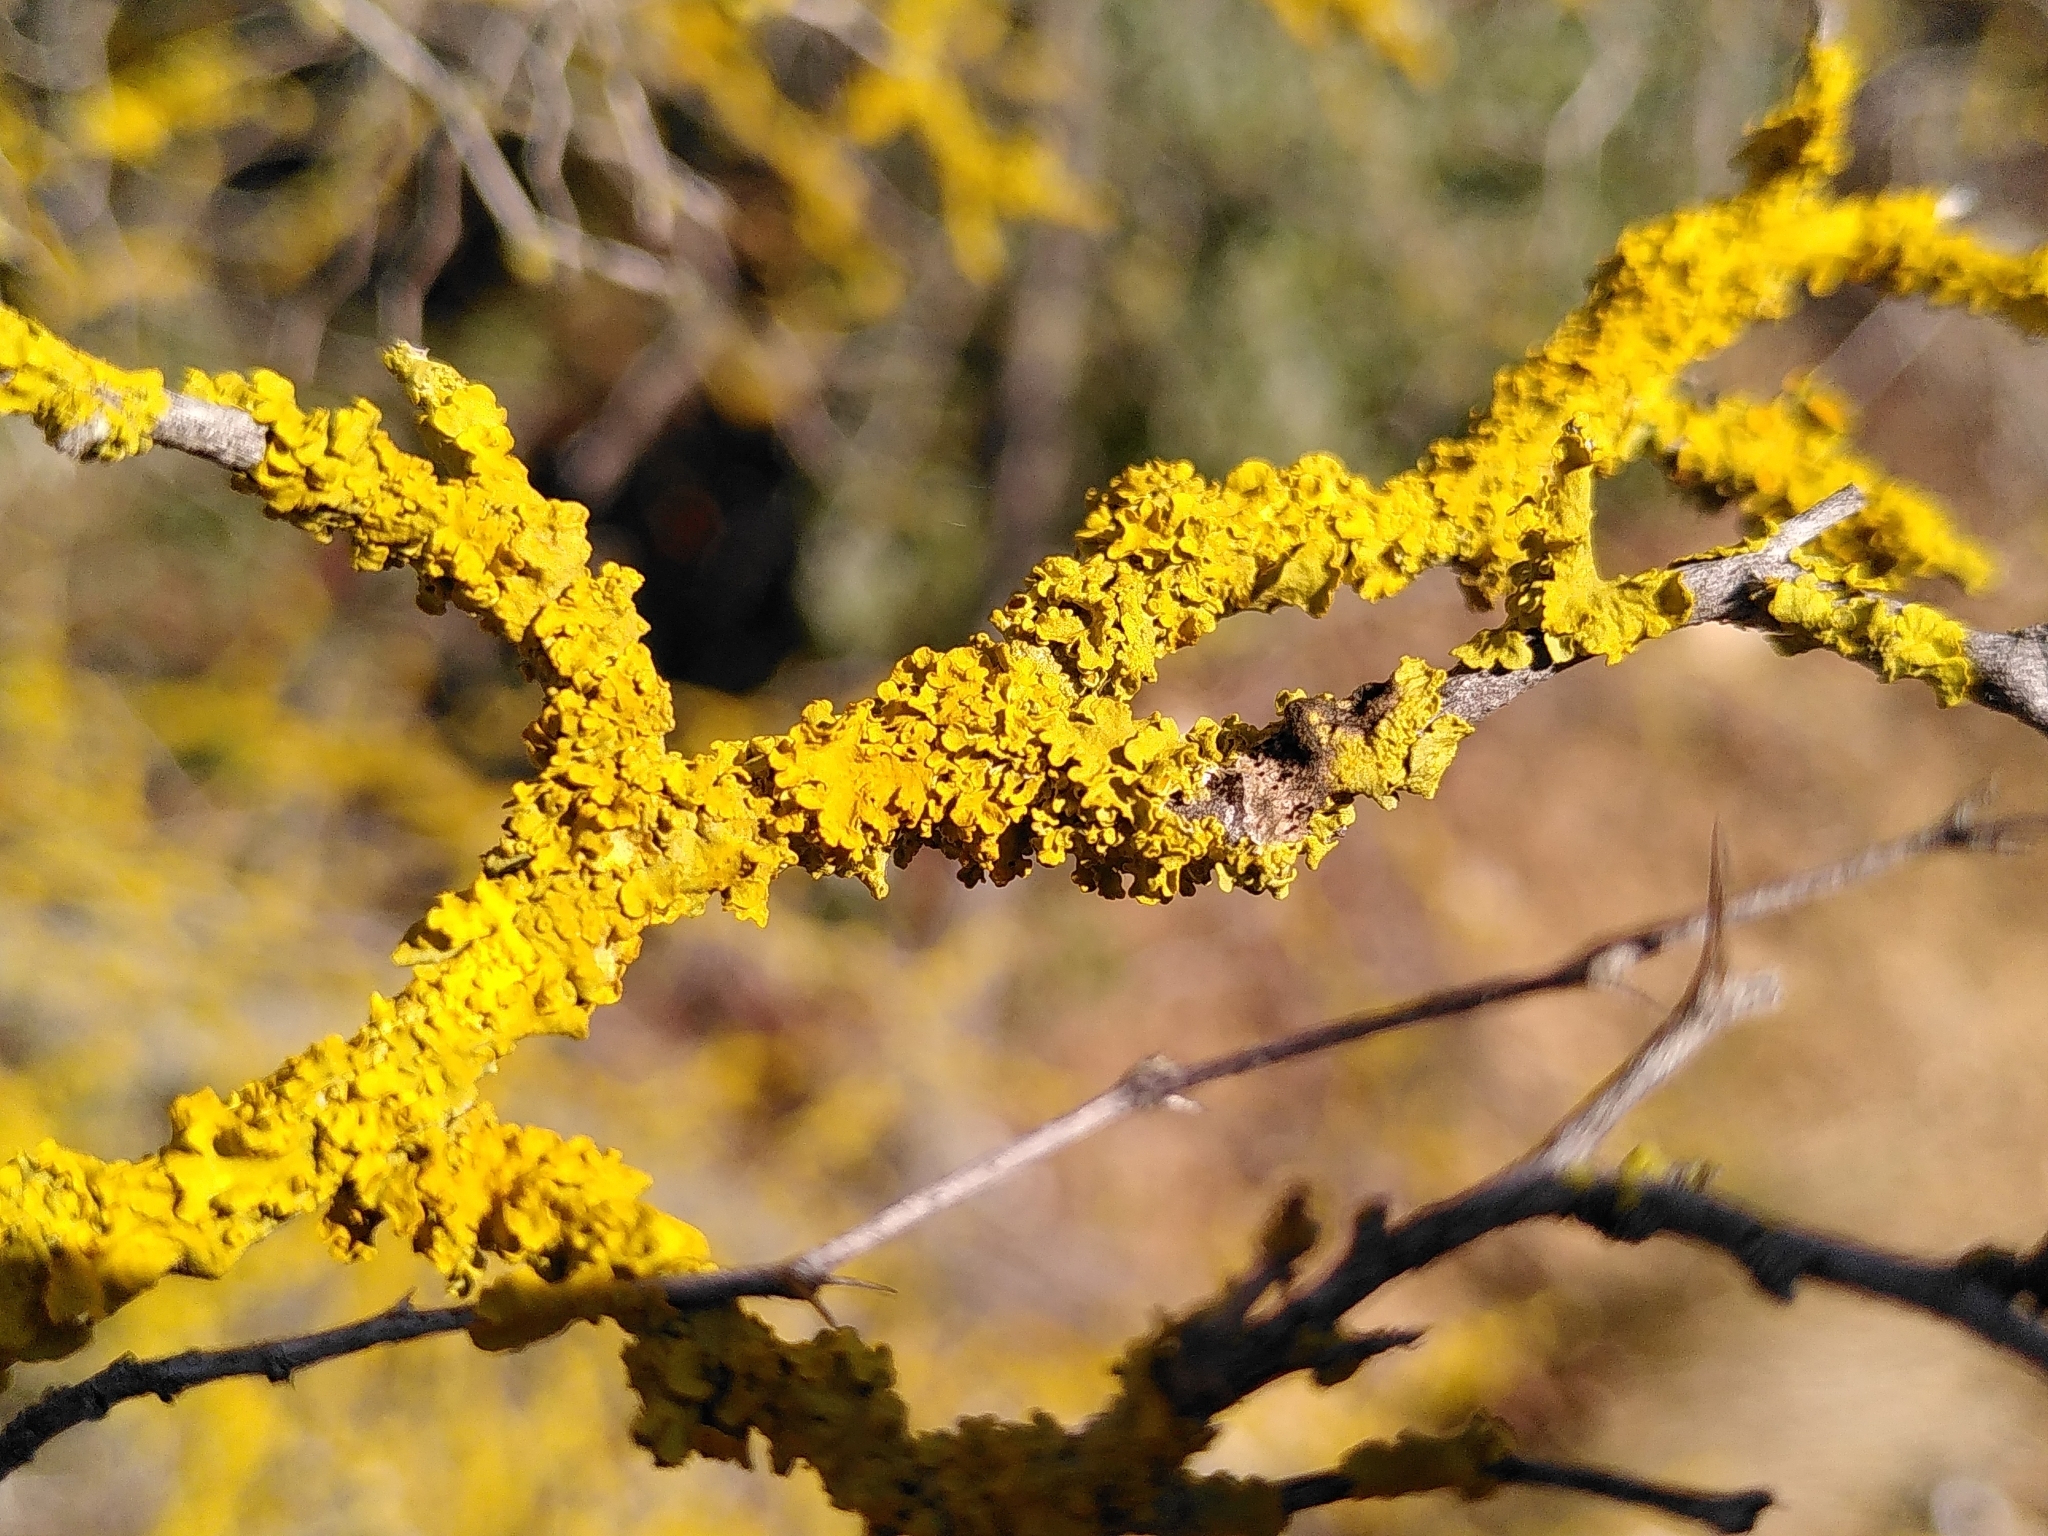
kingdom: Fungi
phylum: Ascomycota
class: Lecanoromycetes
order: Teloschistales
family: Teloschistaceae
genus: Xanthoria
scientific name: Xanthoria parietina
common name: Common orange lichen
